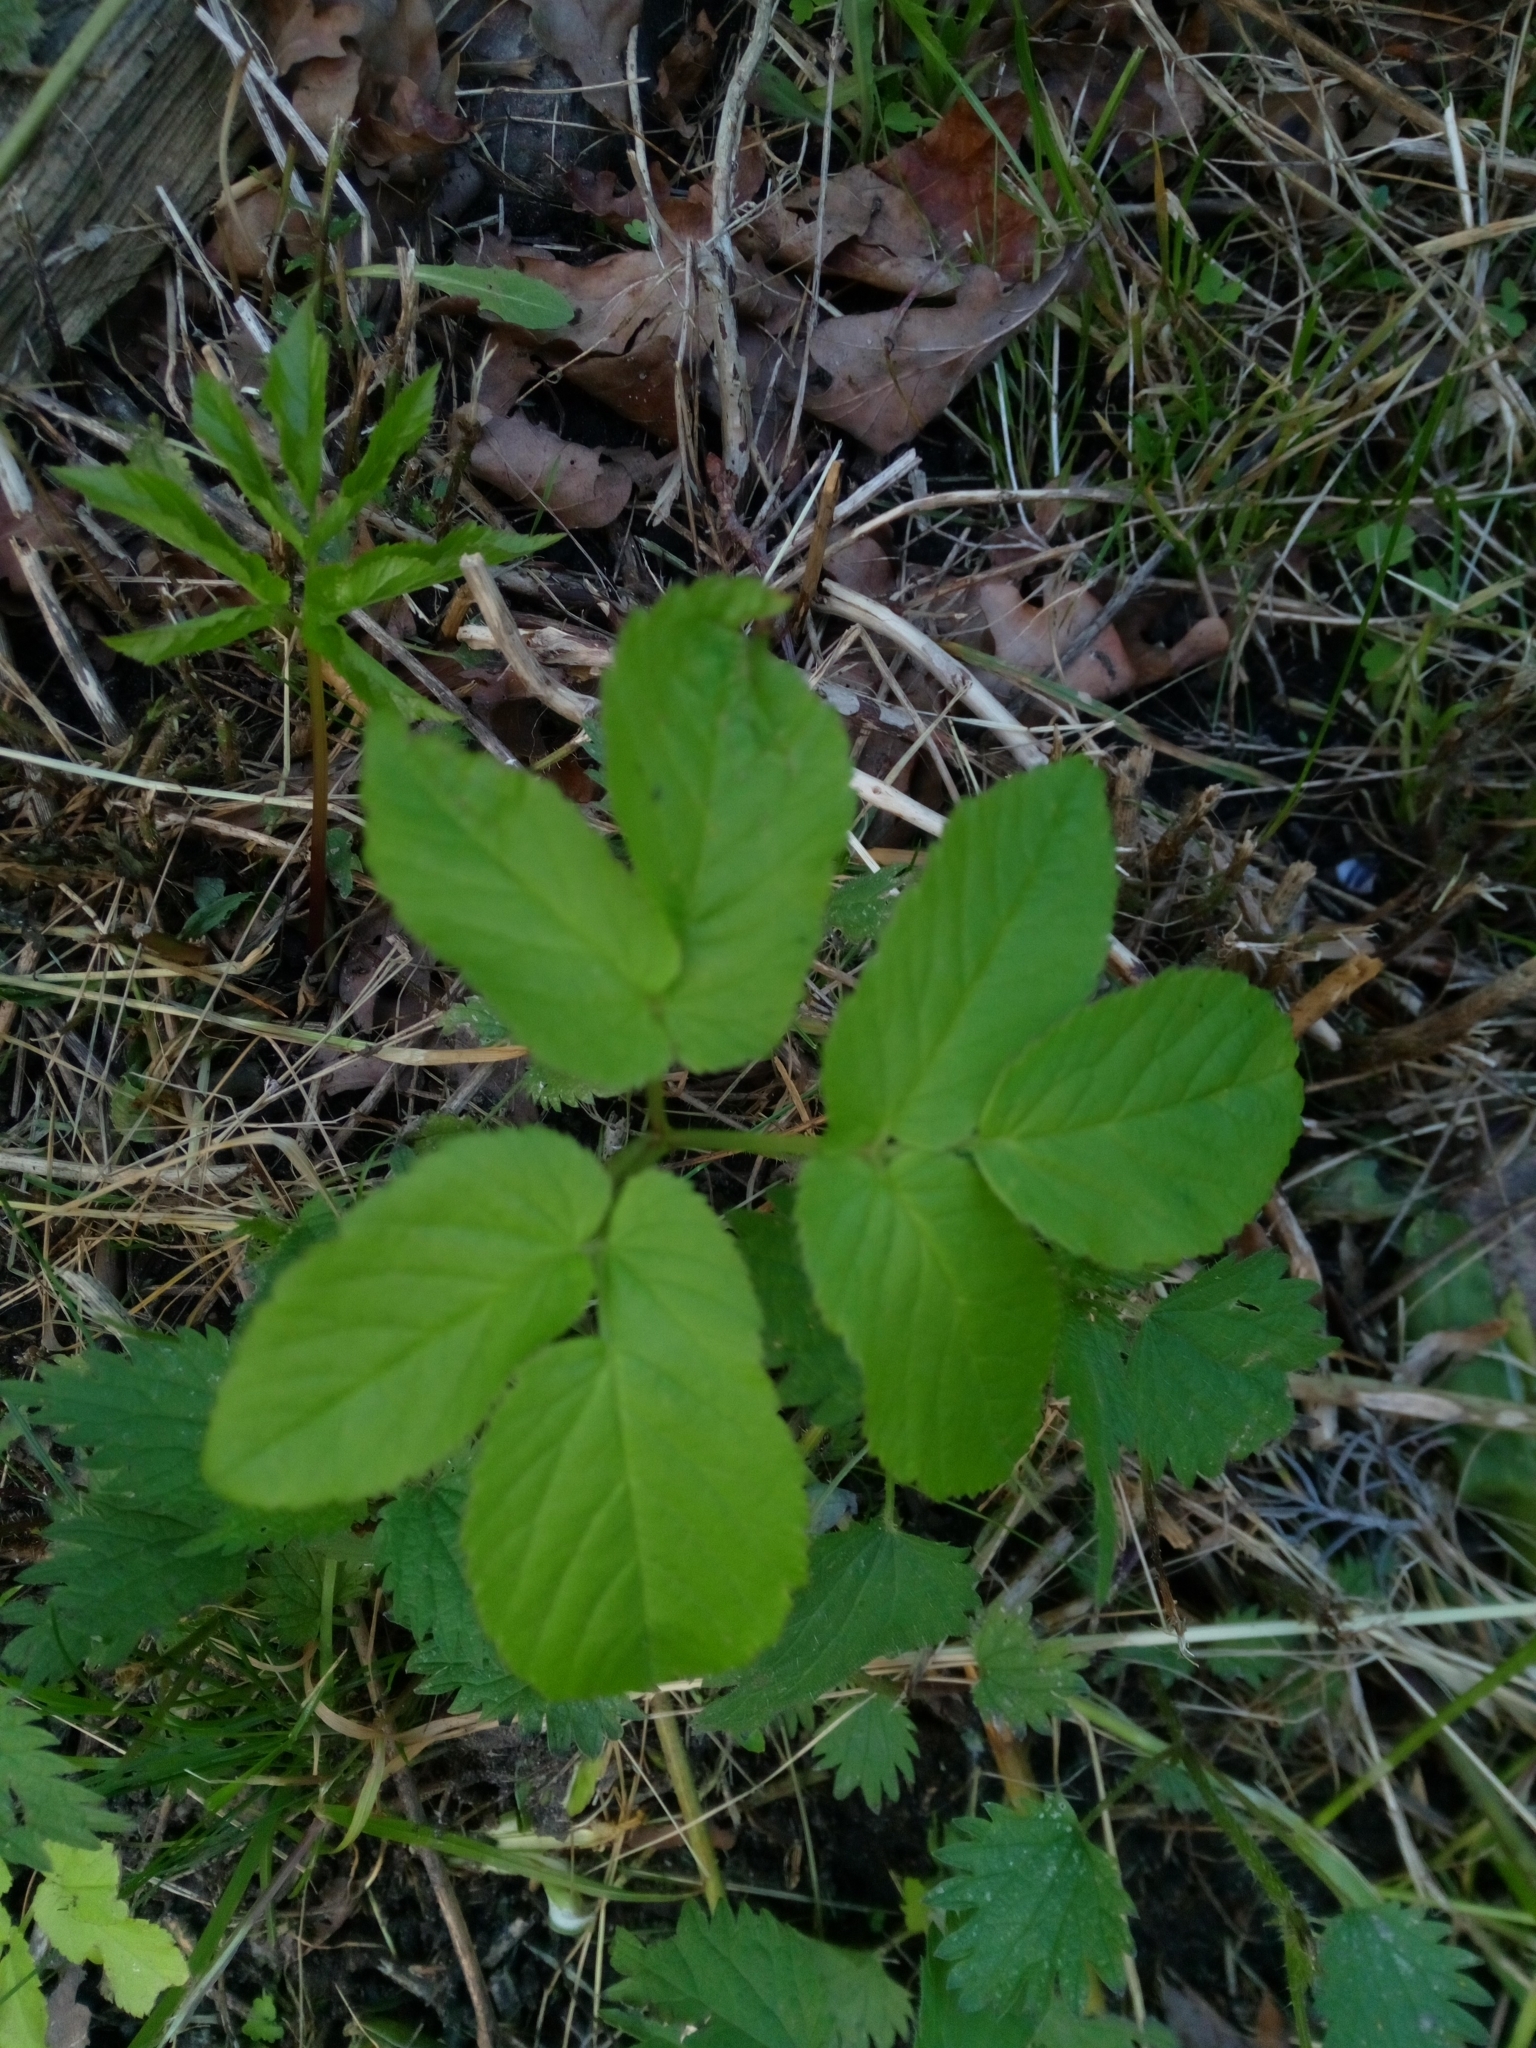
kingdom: Plantae
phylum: Tracheophyta
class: Magnoliopsida
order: Apiales
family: Apiaceae
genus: Aegopodium
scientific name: Aegopodium podagraria
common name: Ground-elder
